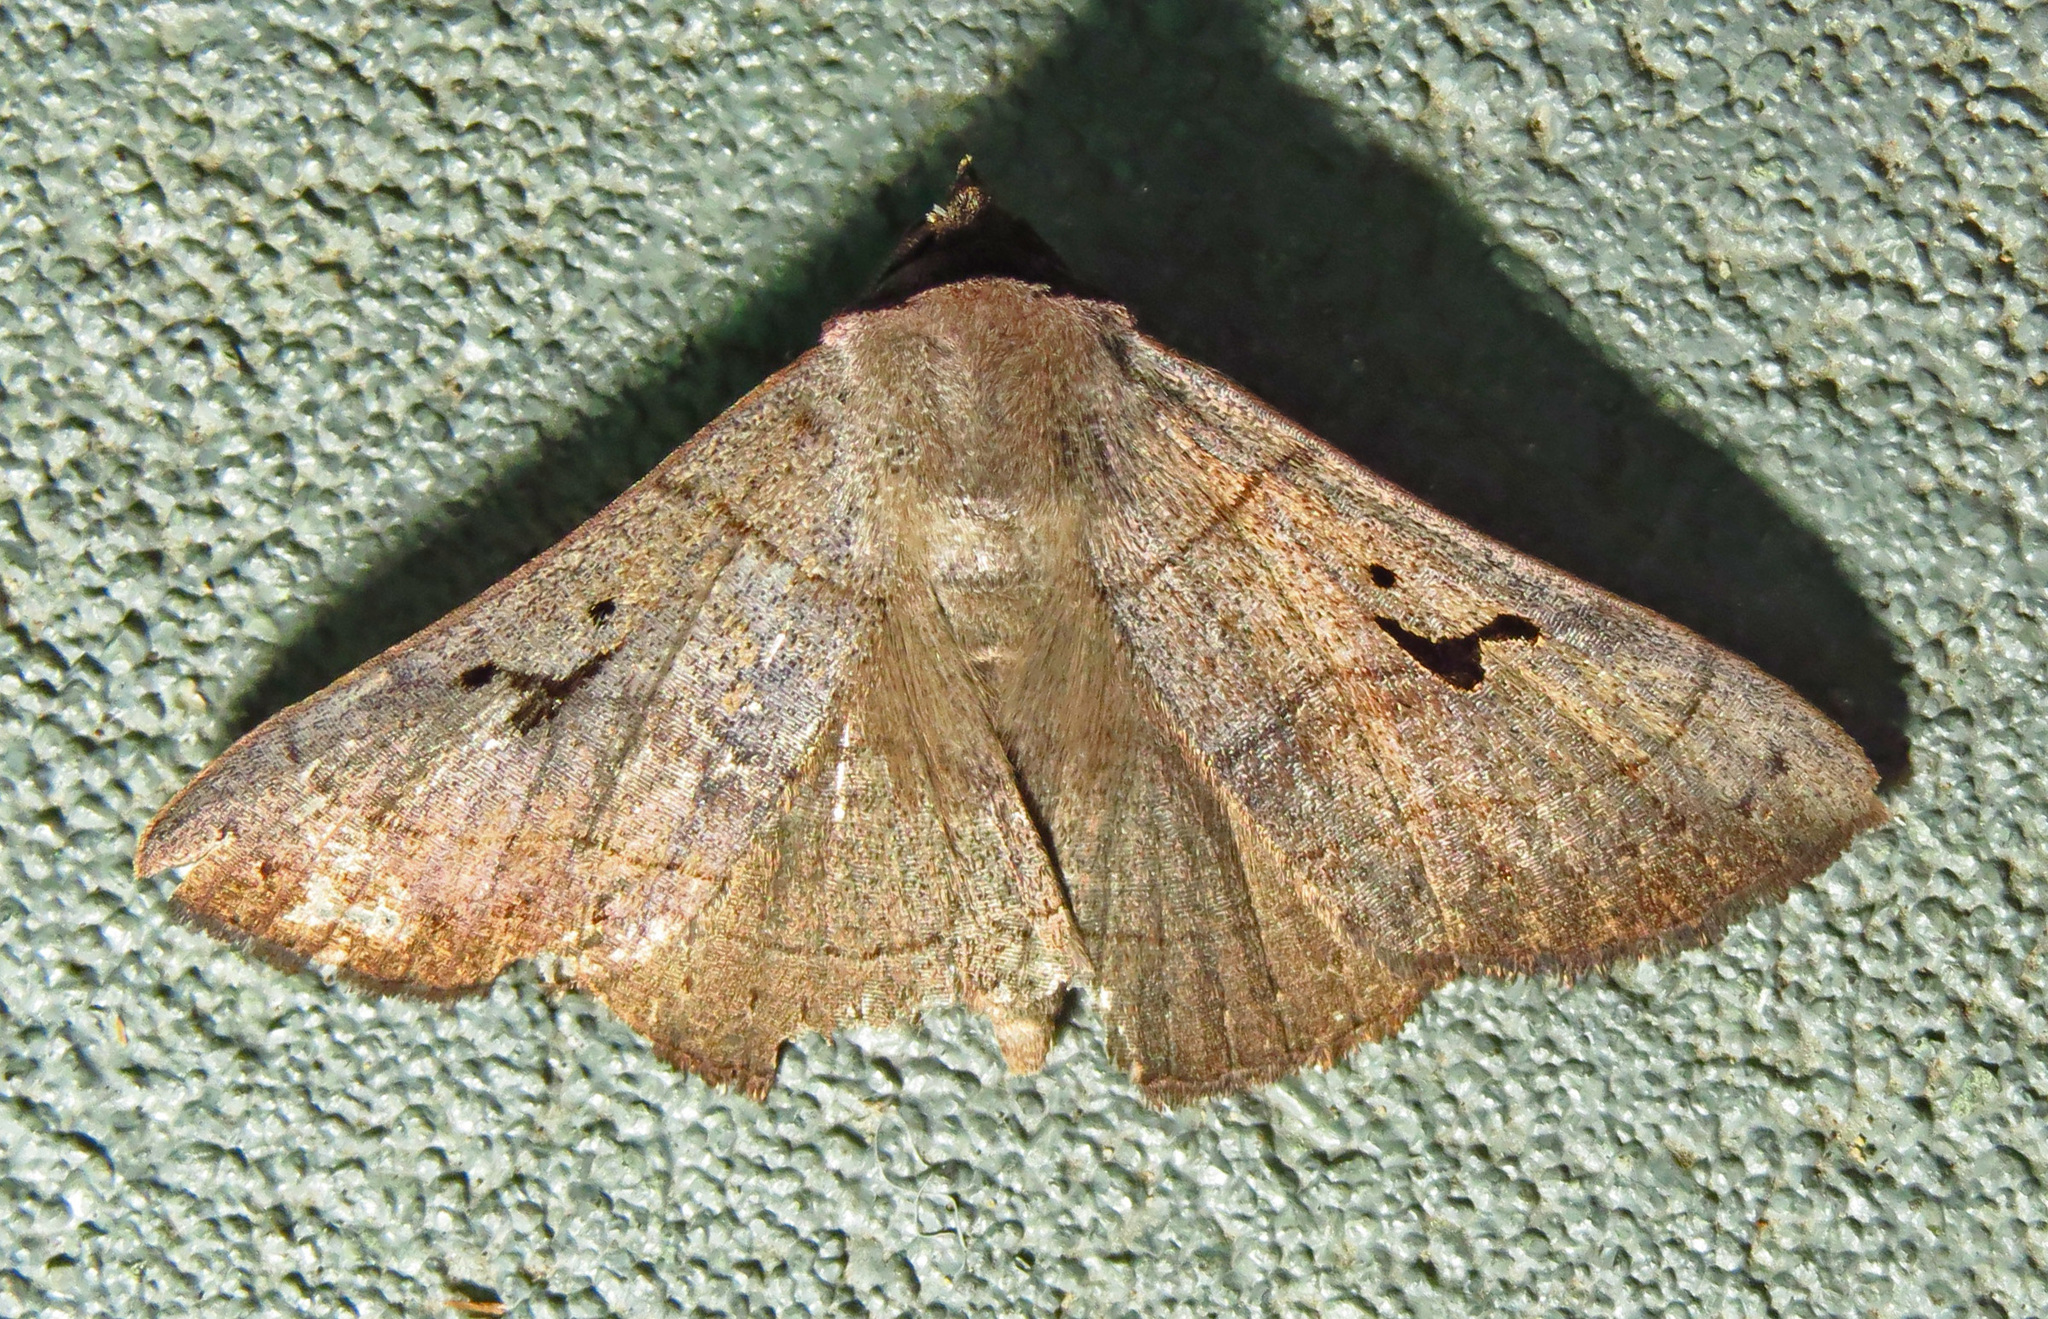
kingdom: Animalia
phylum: Arthropoda
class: Insecta
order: Lepidoptera
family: Erebidae
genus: Panopoda
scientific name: Panopoda carneicosta
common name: Brown panopoda moth
